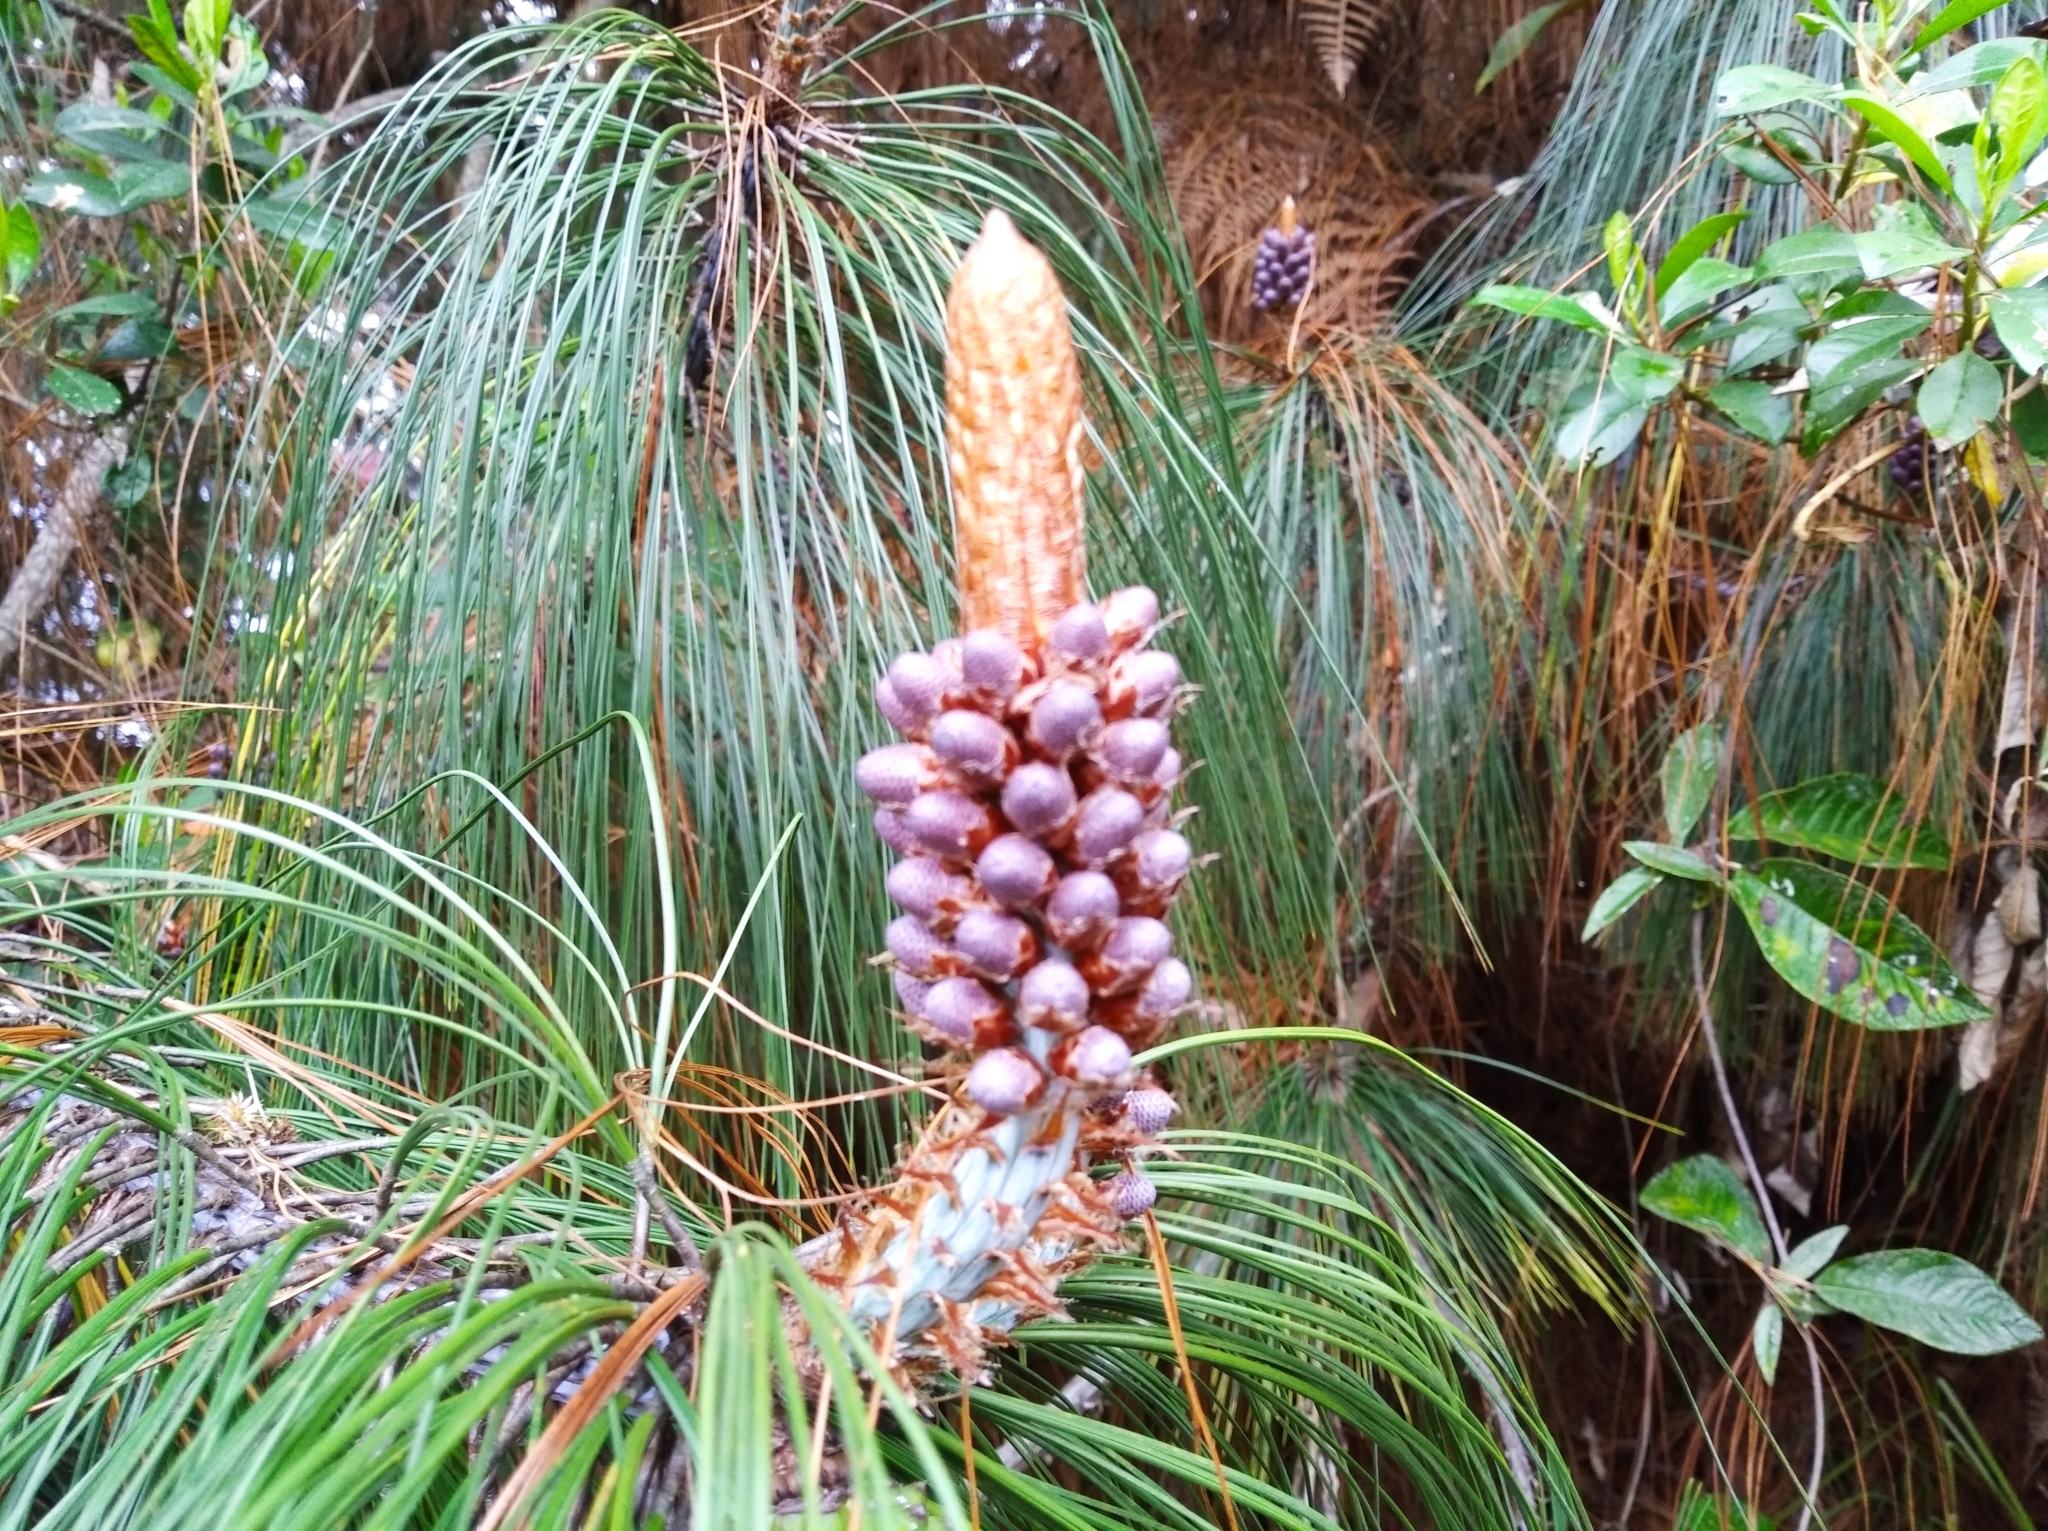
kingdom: Plantae
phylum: Tracheophyta
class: Pinopsida
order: Pinales
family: Pinaceae
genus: Pinus
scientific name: Pinus patula
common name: Mexican weeping pine
